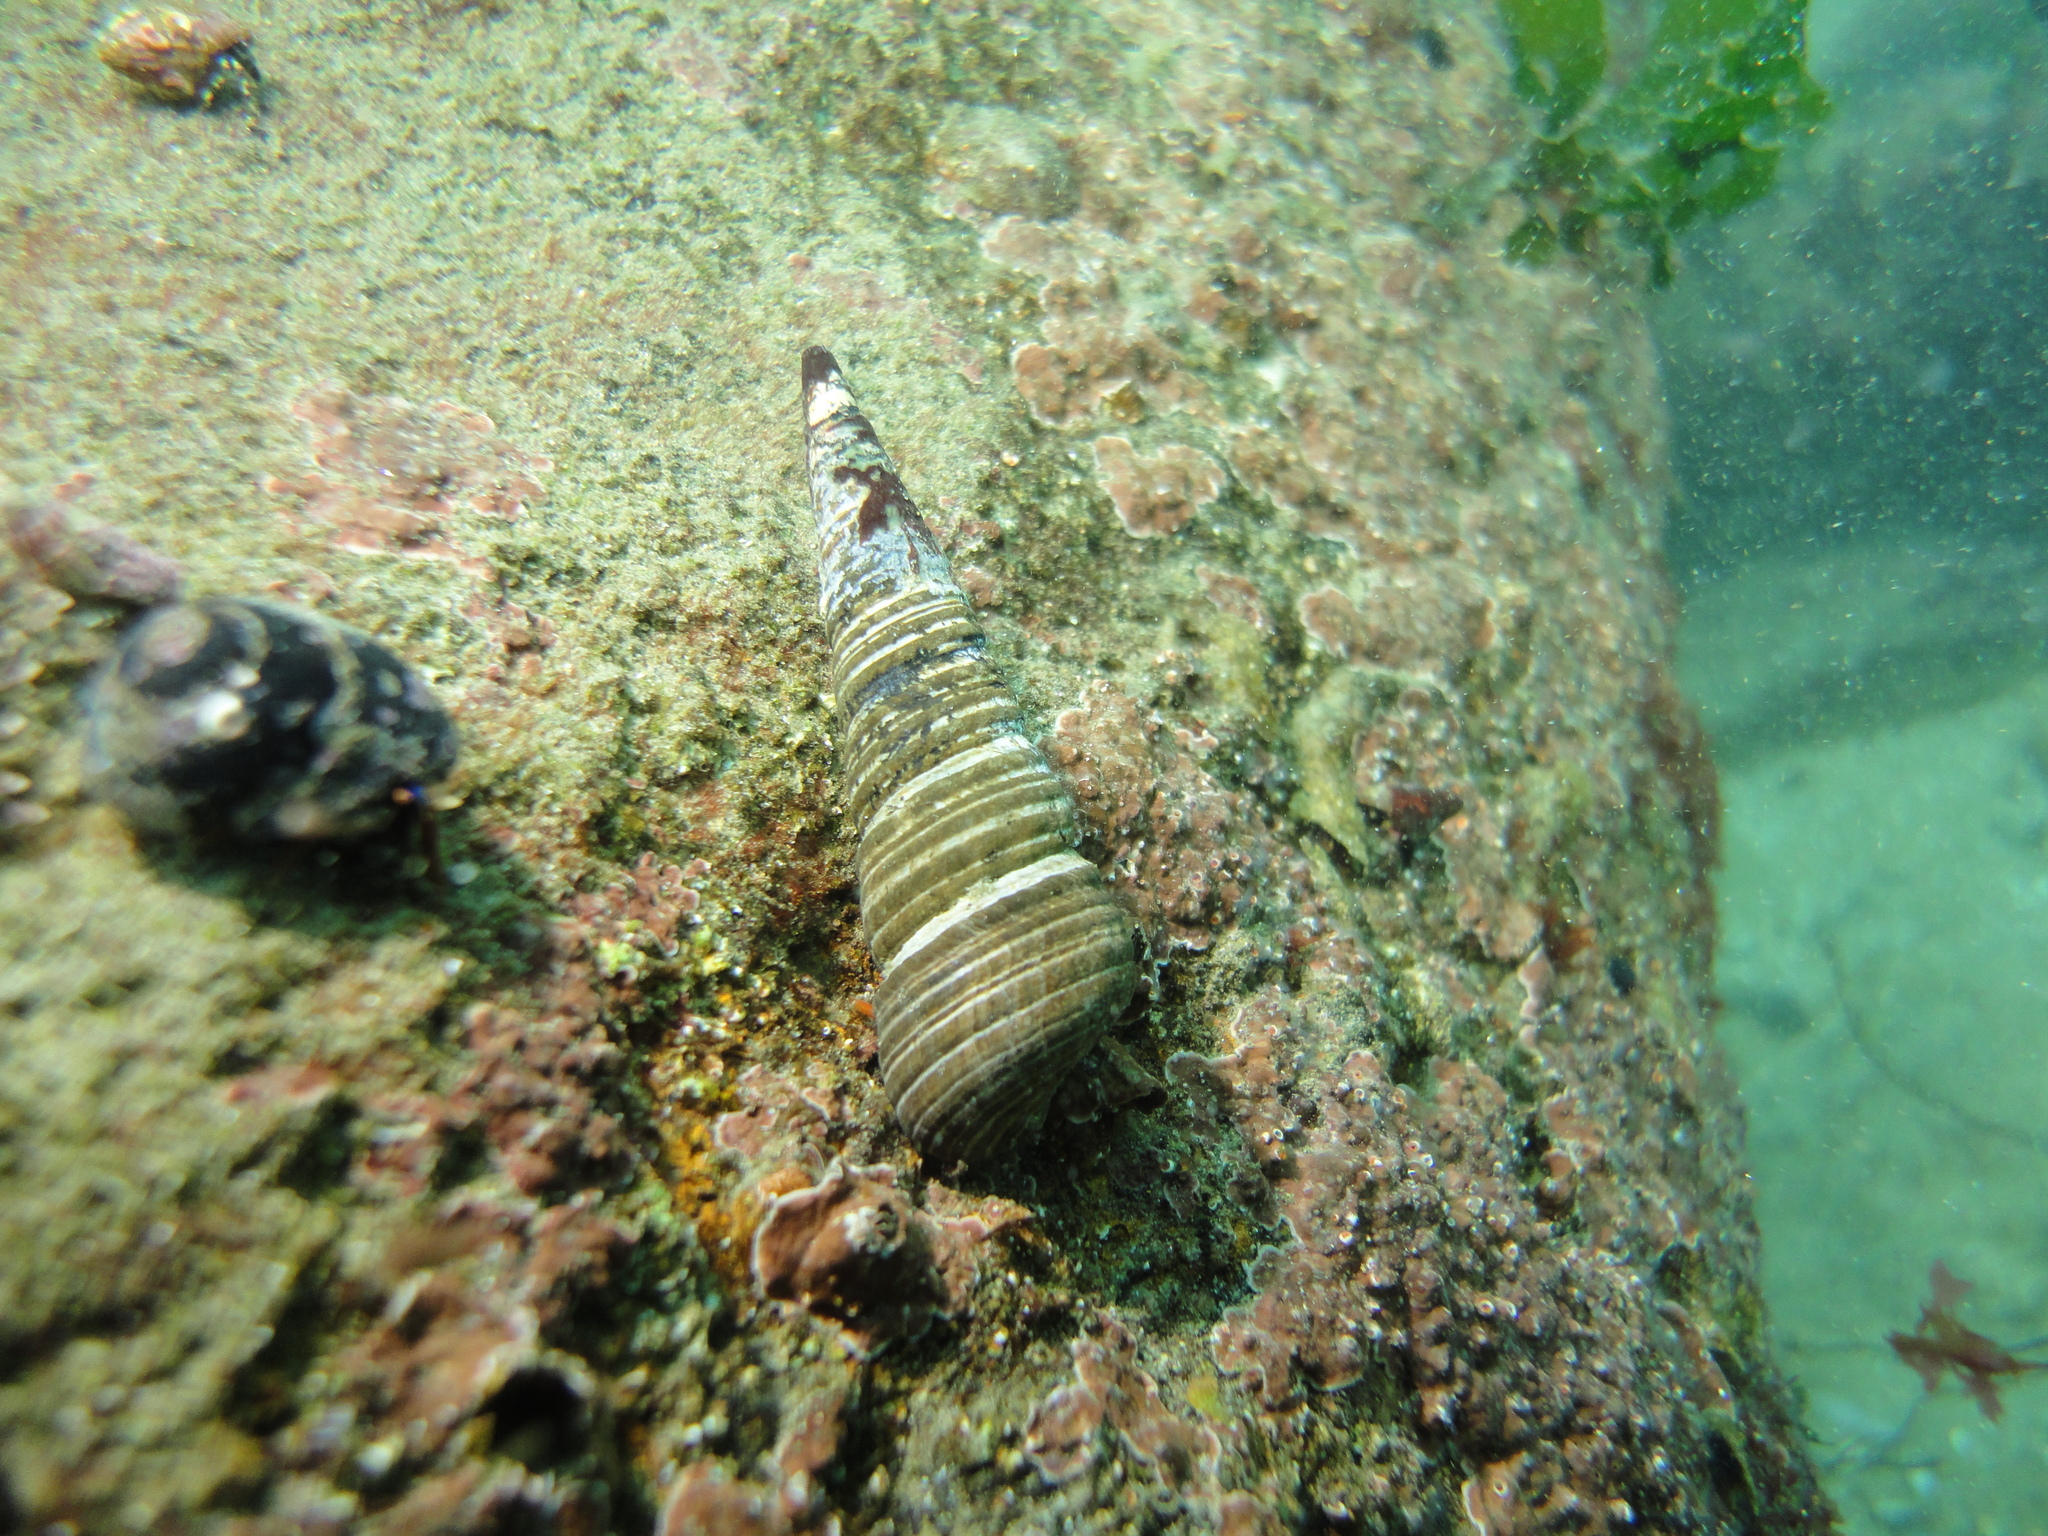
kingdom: Animalia
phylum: Mollusca
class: Gastropoda
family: Turritellidae
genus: Incatella
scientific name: Incatella cingulata
